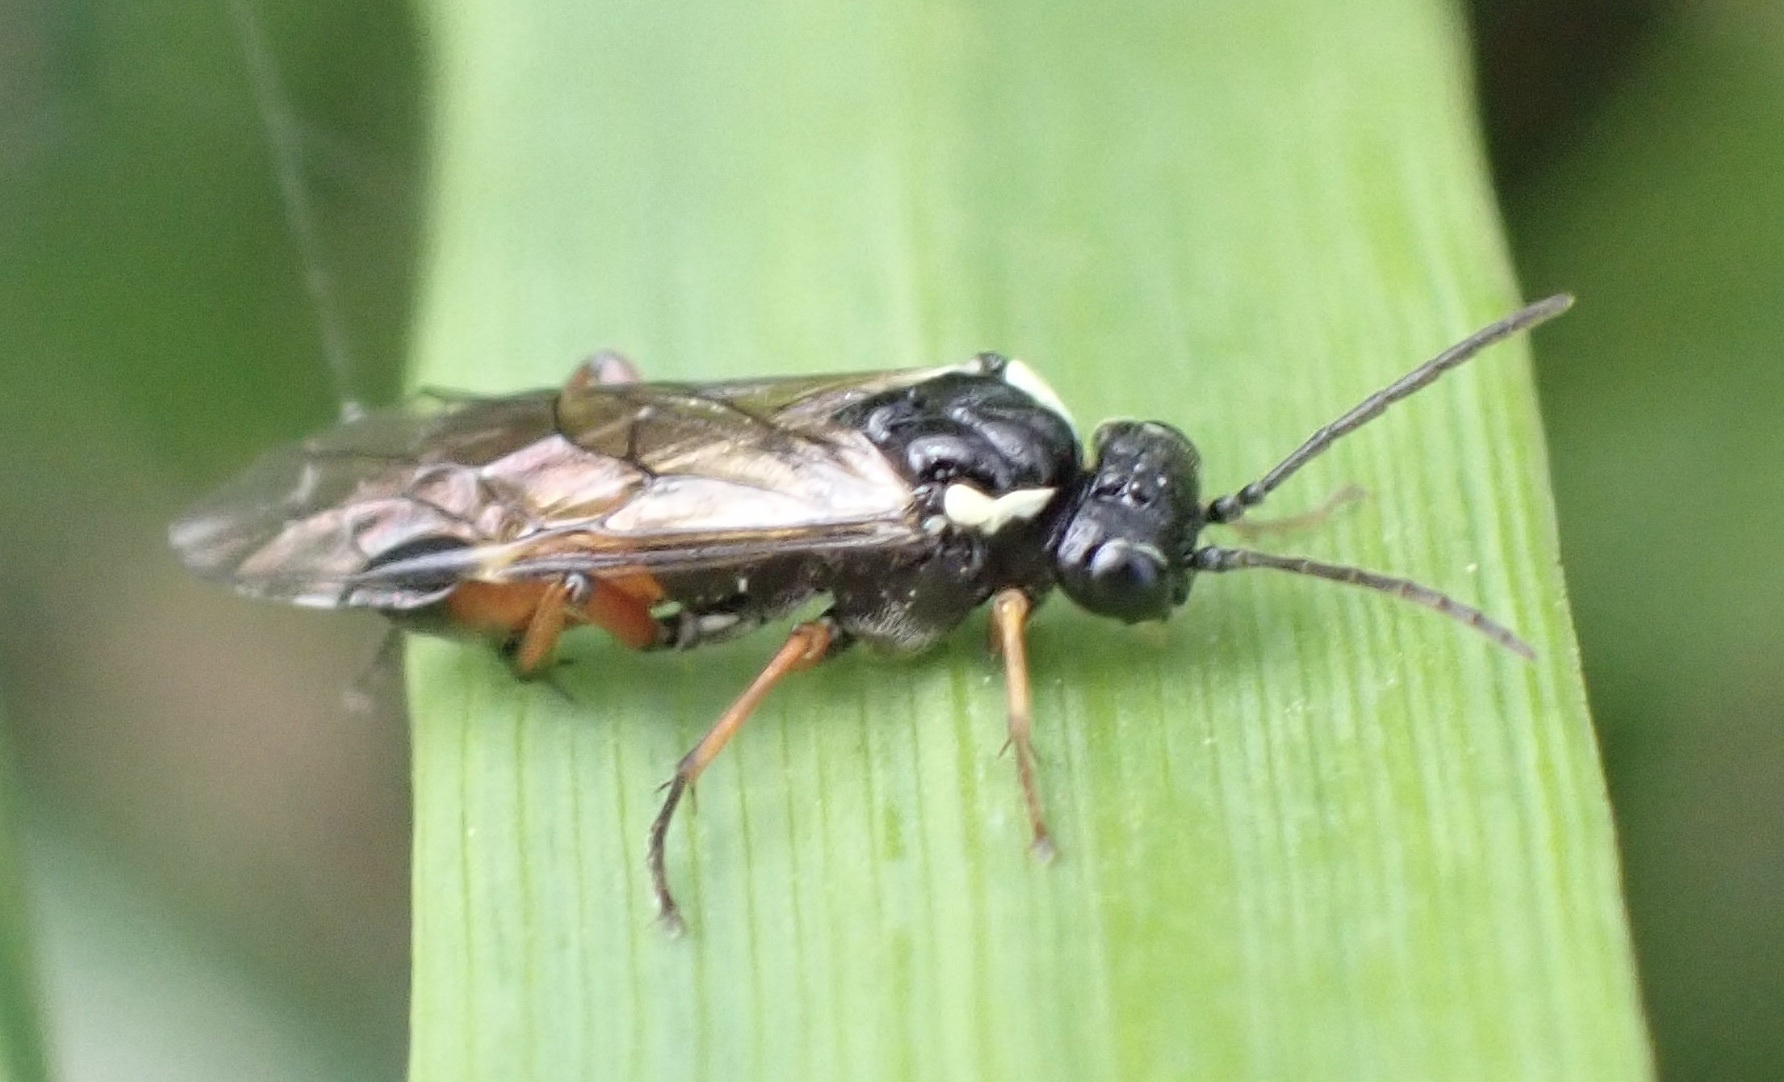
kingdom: Animalia
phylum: Arthropoda
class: Insecta
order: Hymenoptera
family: Tenthredinidae
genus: Aglaostigma
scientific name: Aglaostigma aucupariae
